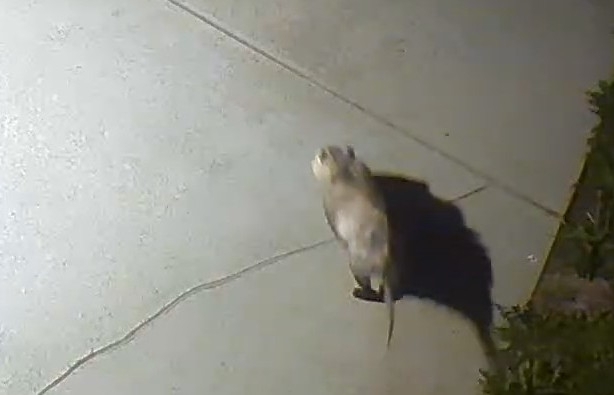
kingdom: Animalia
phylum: Chordata
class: Mammalia
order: Didelphimorphia
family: Didelphidae
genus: Didelphis
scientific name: Didelphis virginiana
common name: Virginia opossum
